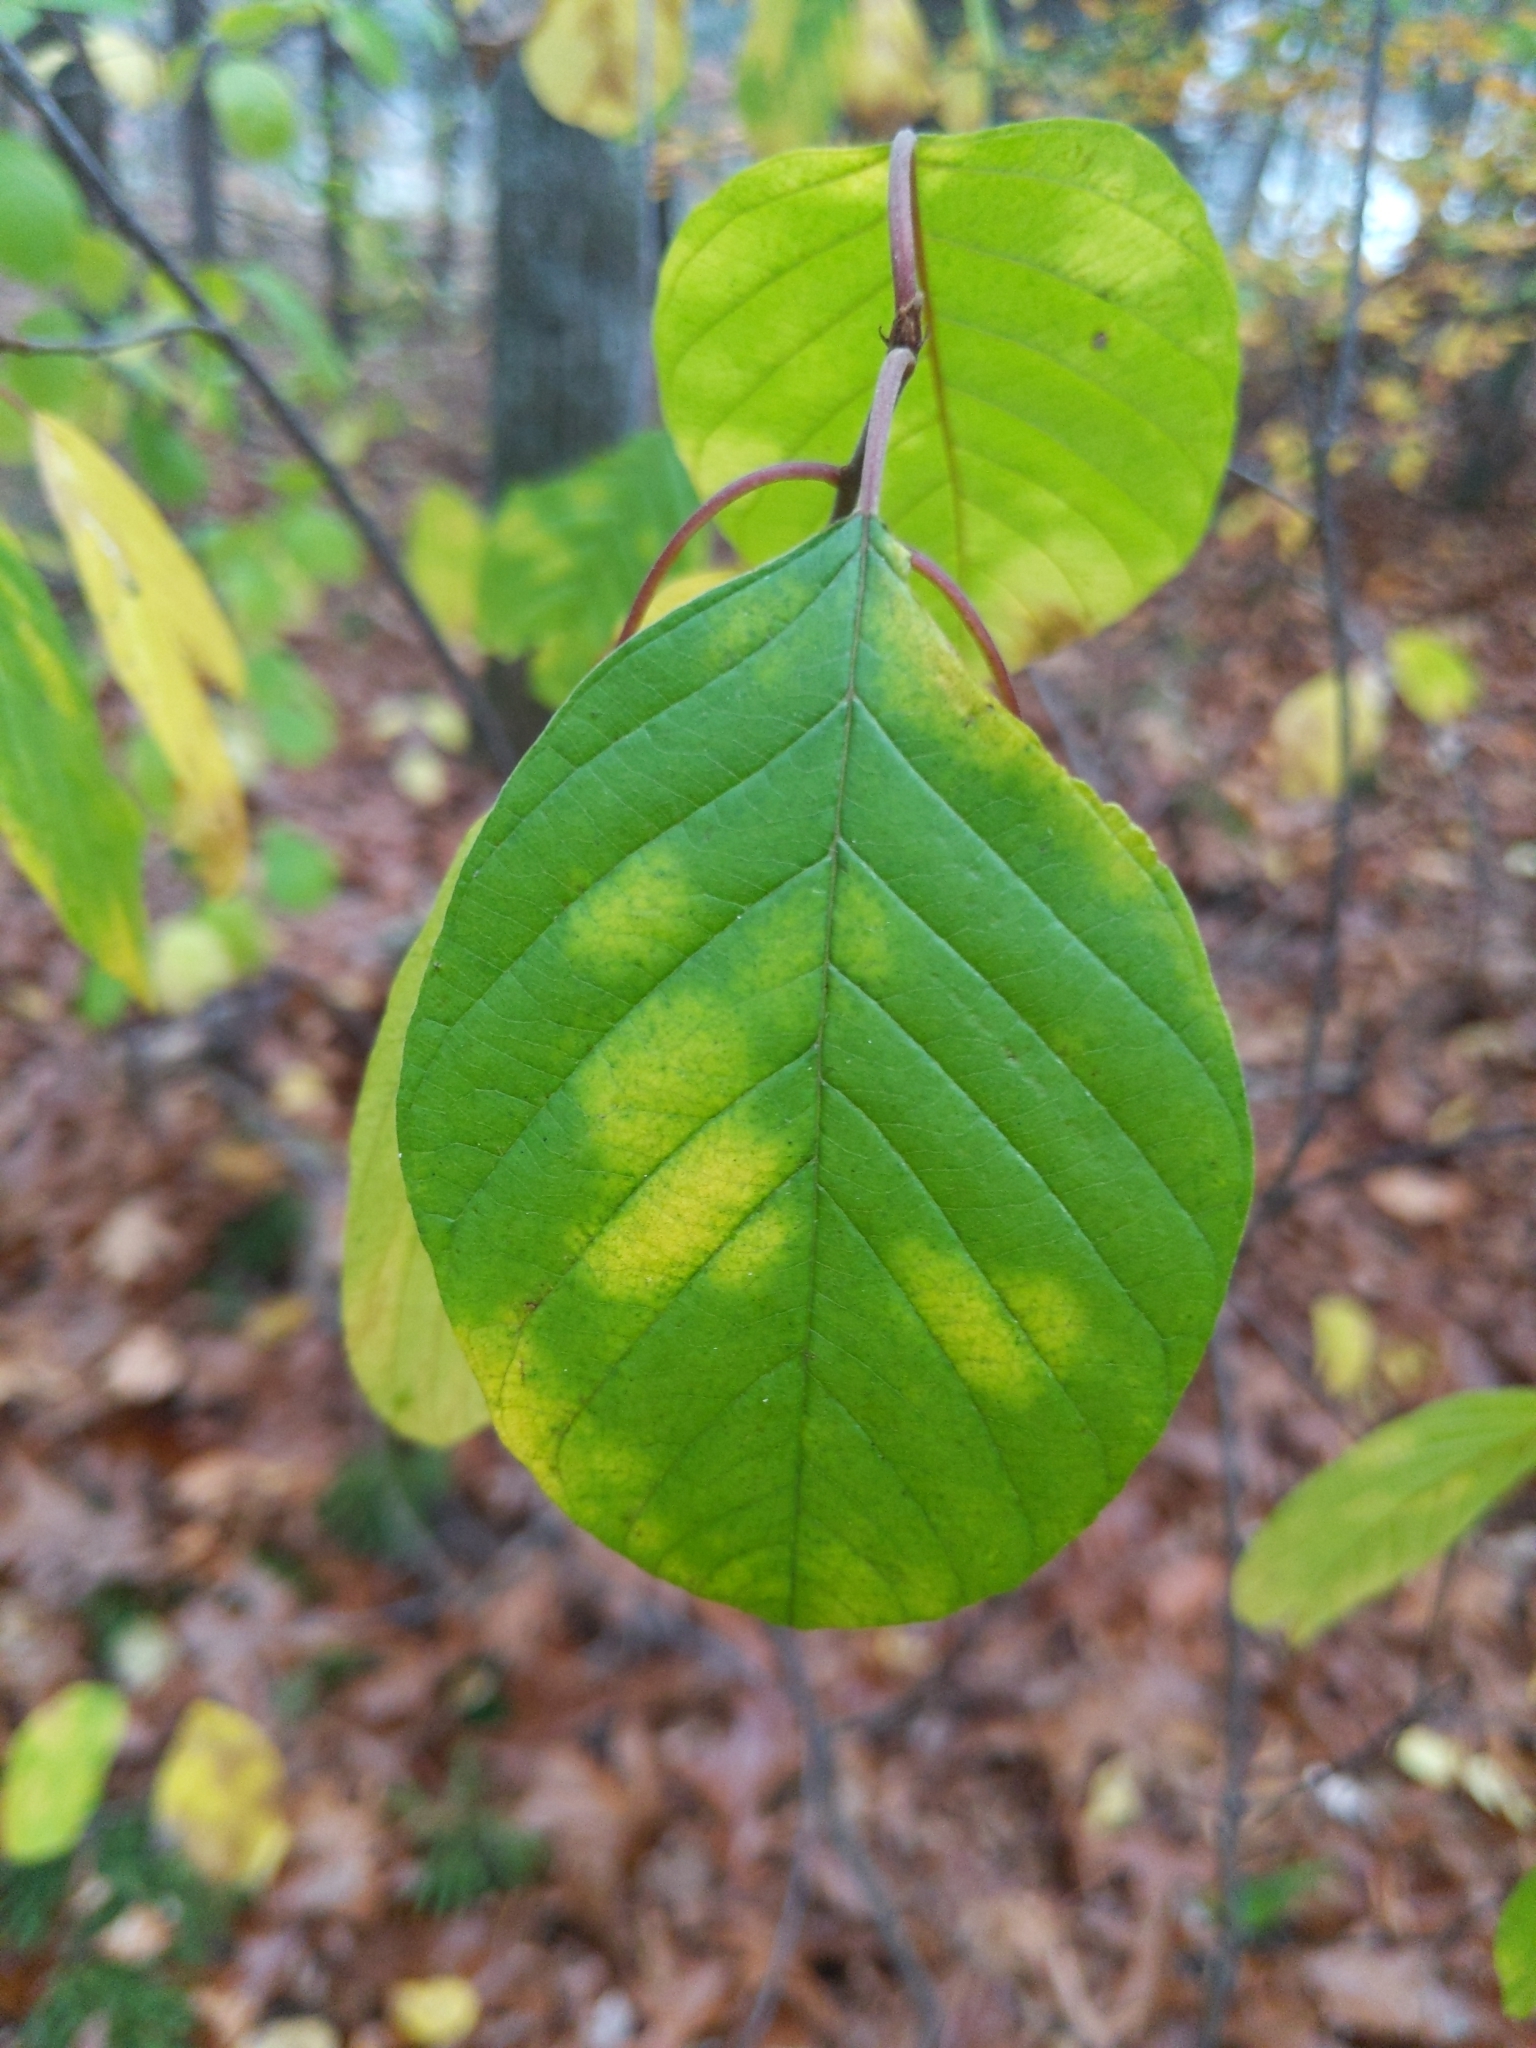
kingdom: Plantae
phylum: Tracheophyta
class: Magnoliopsida
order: Rosales
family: Rhamnaceae
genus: Frangula
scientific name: Frangula alnus
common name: Alder buckthorn
